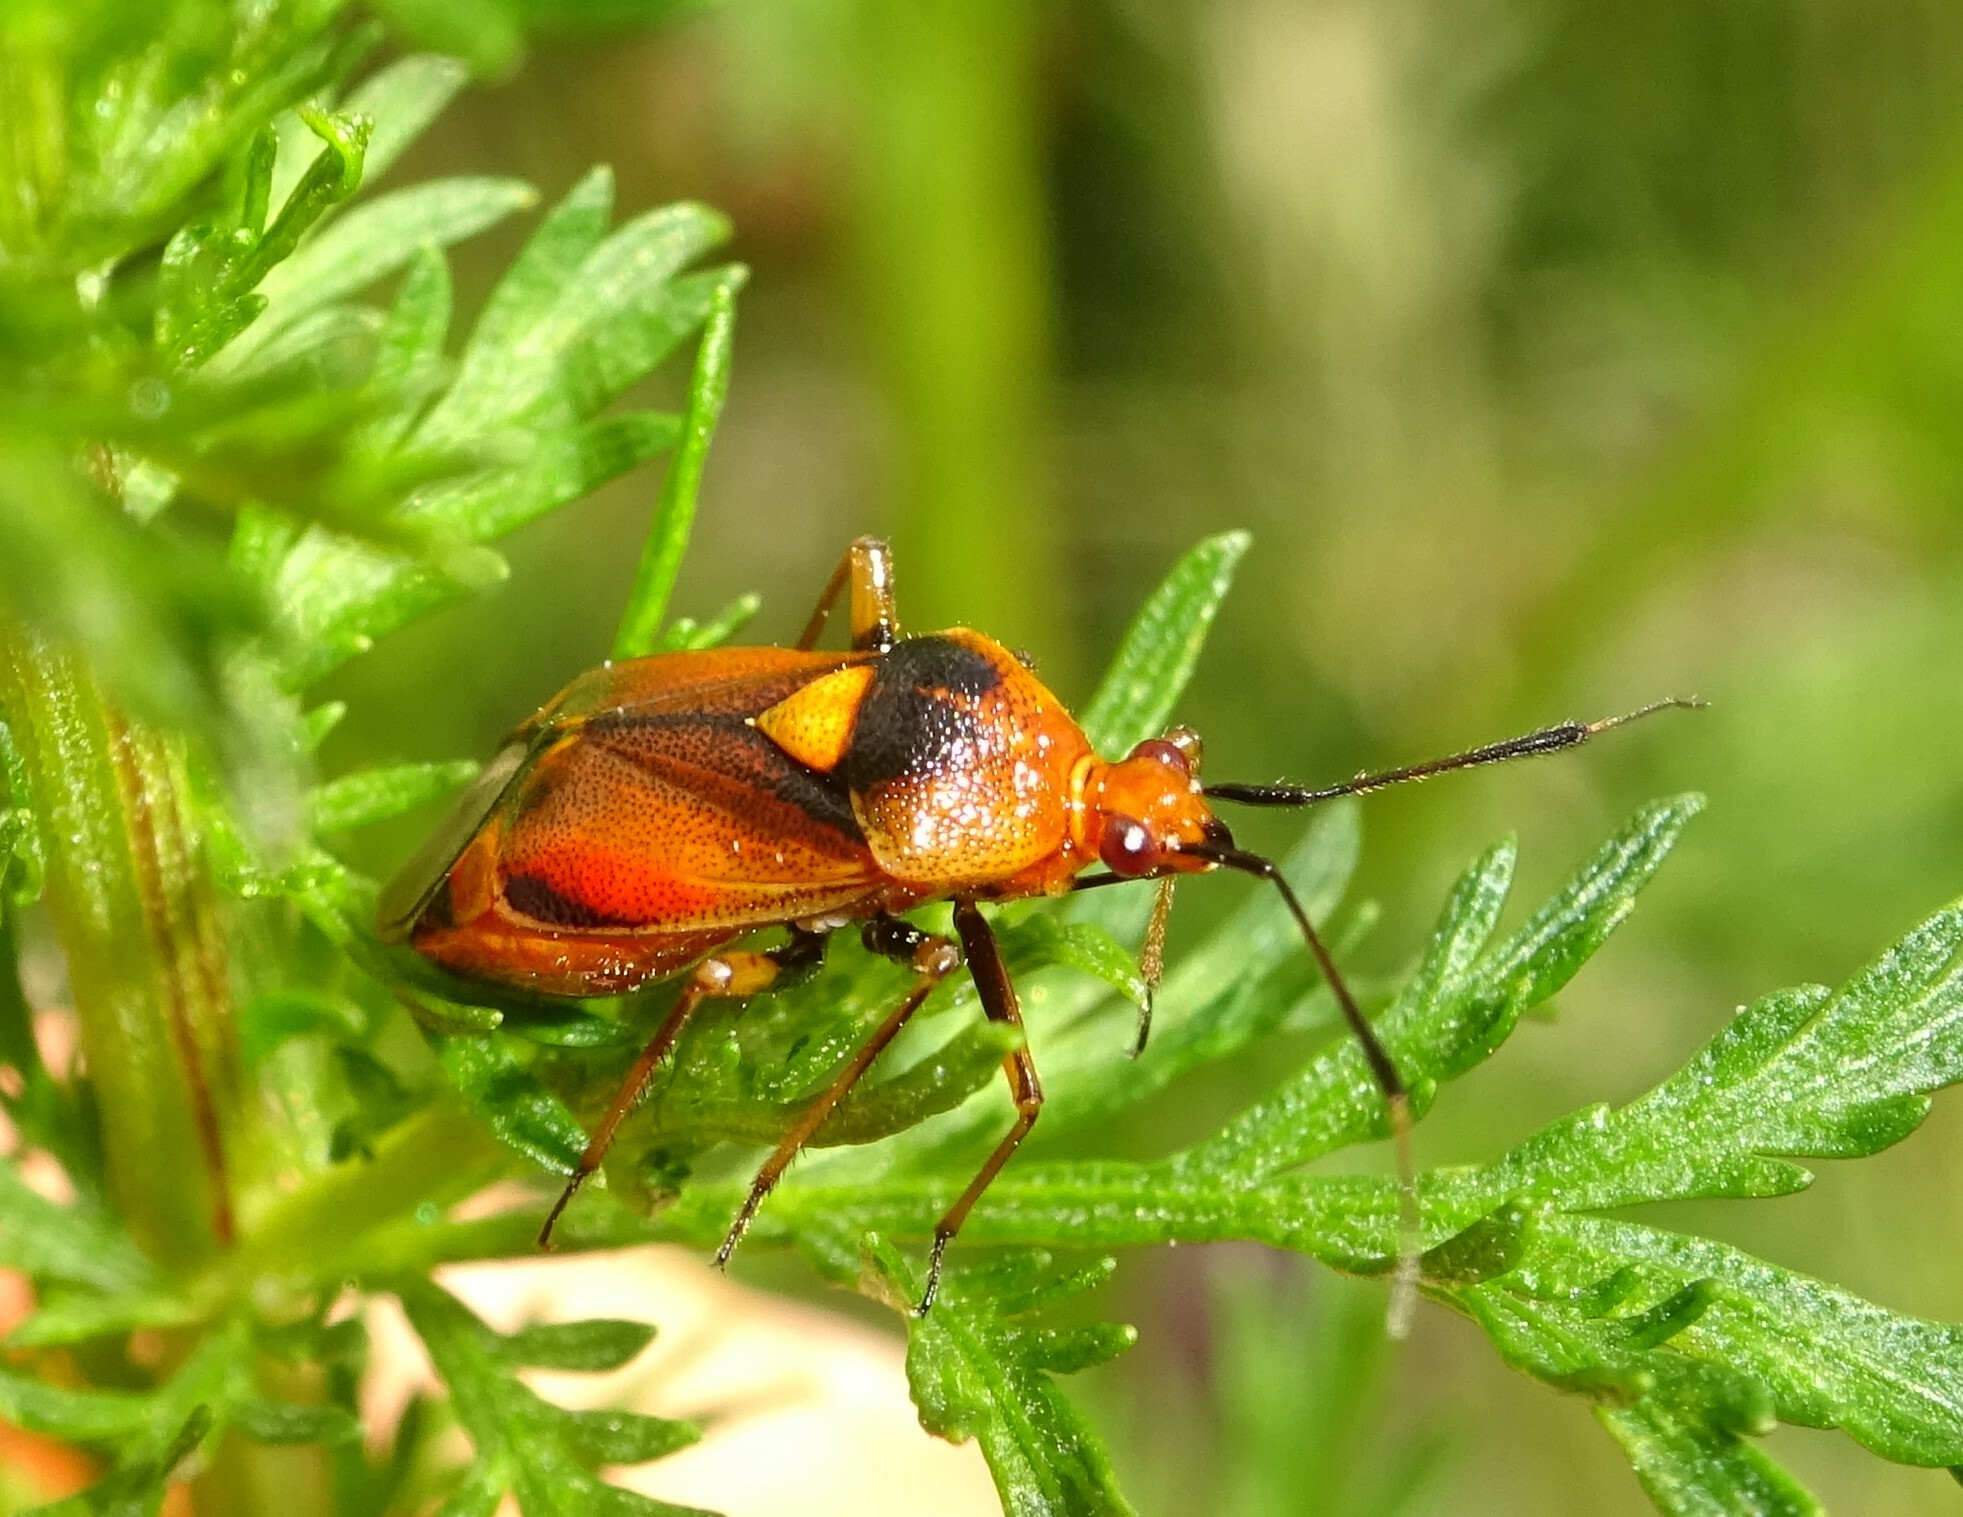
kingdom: Animalia
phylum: Arthropoda
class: Insecta
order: Hemiptera
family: Miridae
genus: Deraeocoris
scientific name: Deraeocoris ruber
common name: Plant bug
